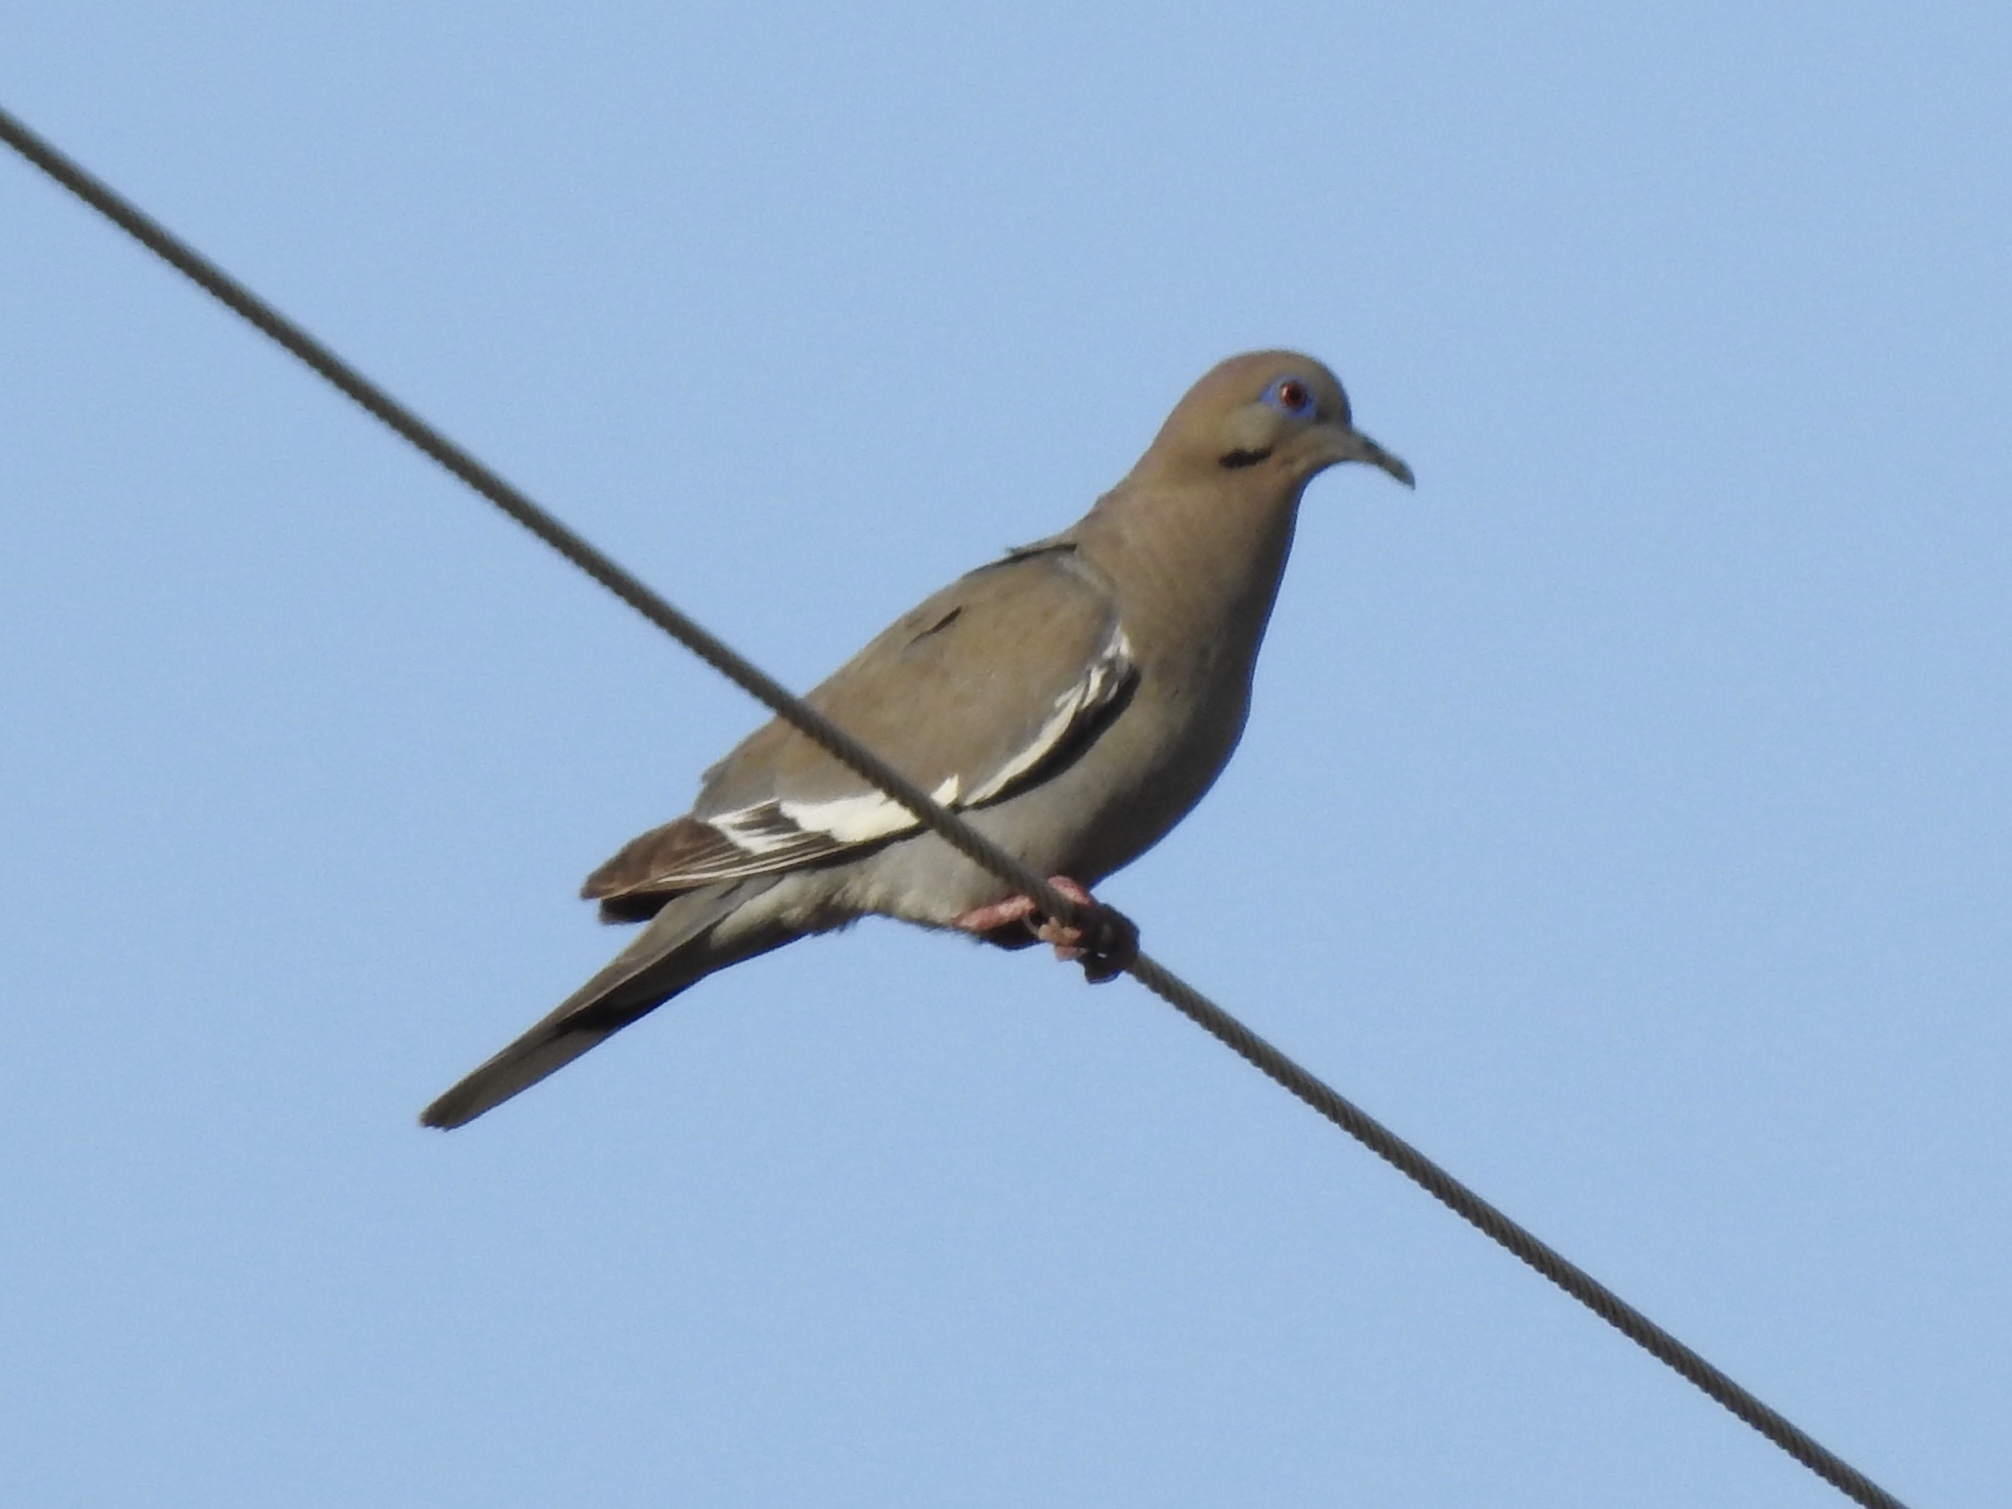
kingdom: Animalia
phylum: Chordata
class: Aves
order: Columbiformes
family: Columbidae
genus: Zenaida
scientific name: Zenaida asiatica
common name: White-winged dove
